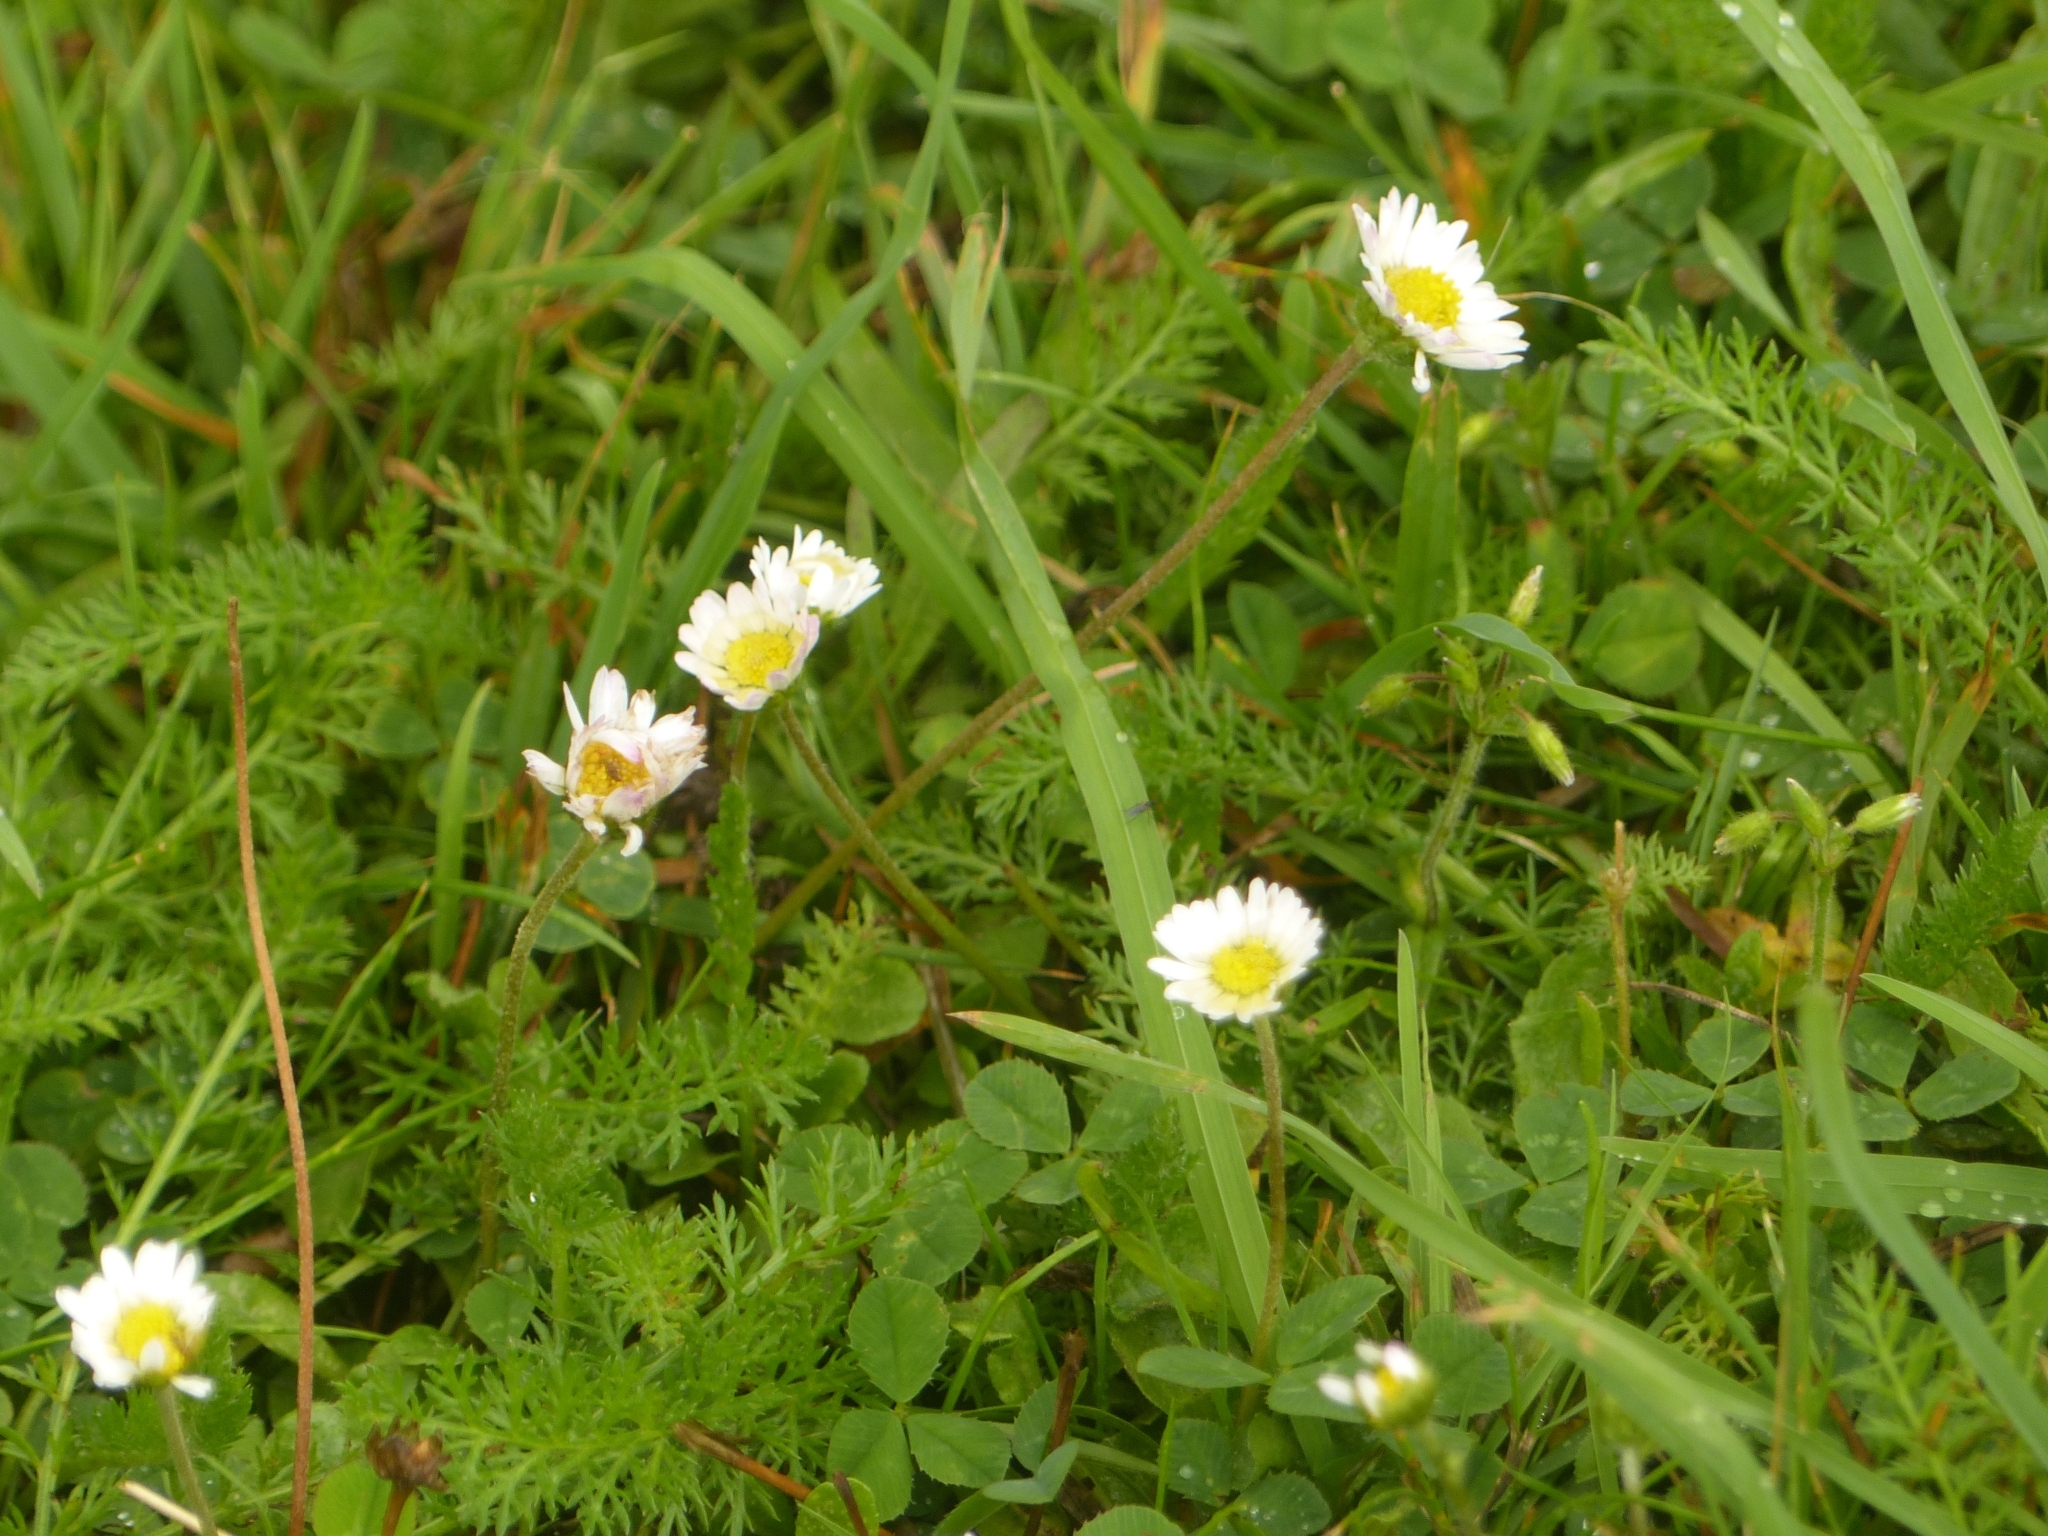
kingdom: Plantae
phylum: Tracheophyta
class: Magnoliopsida
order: Asterales
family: Asteraceae
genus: Bellis
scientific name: Bellis perennis
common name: Lawndaisy
